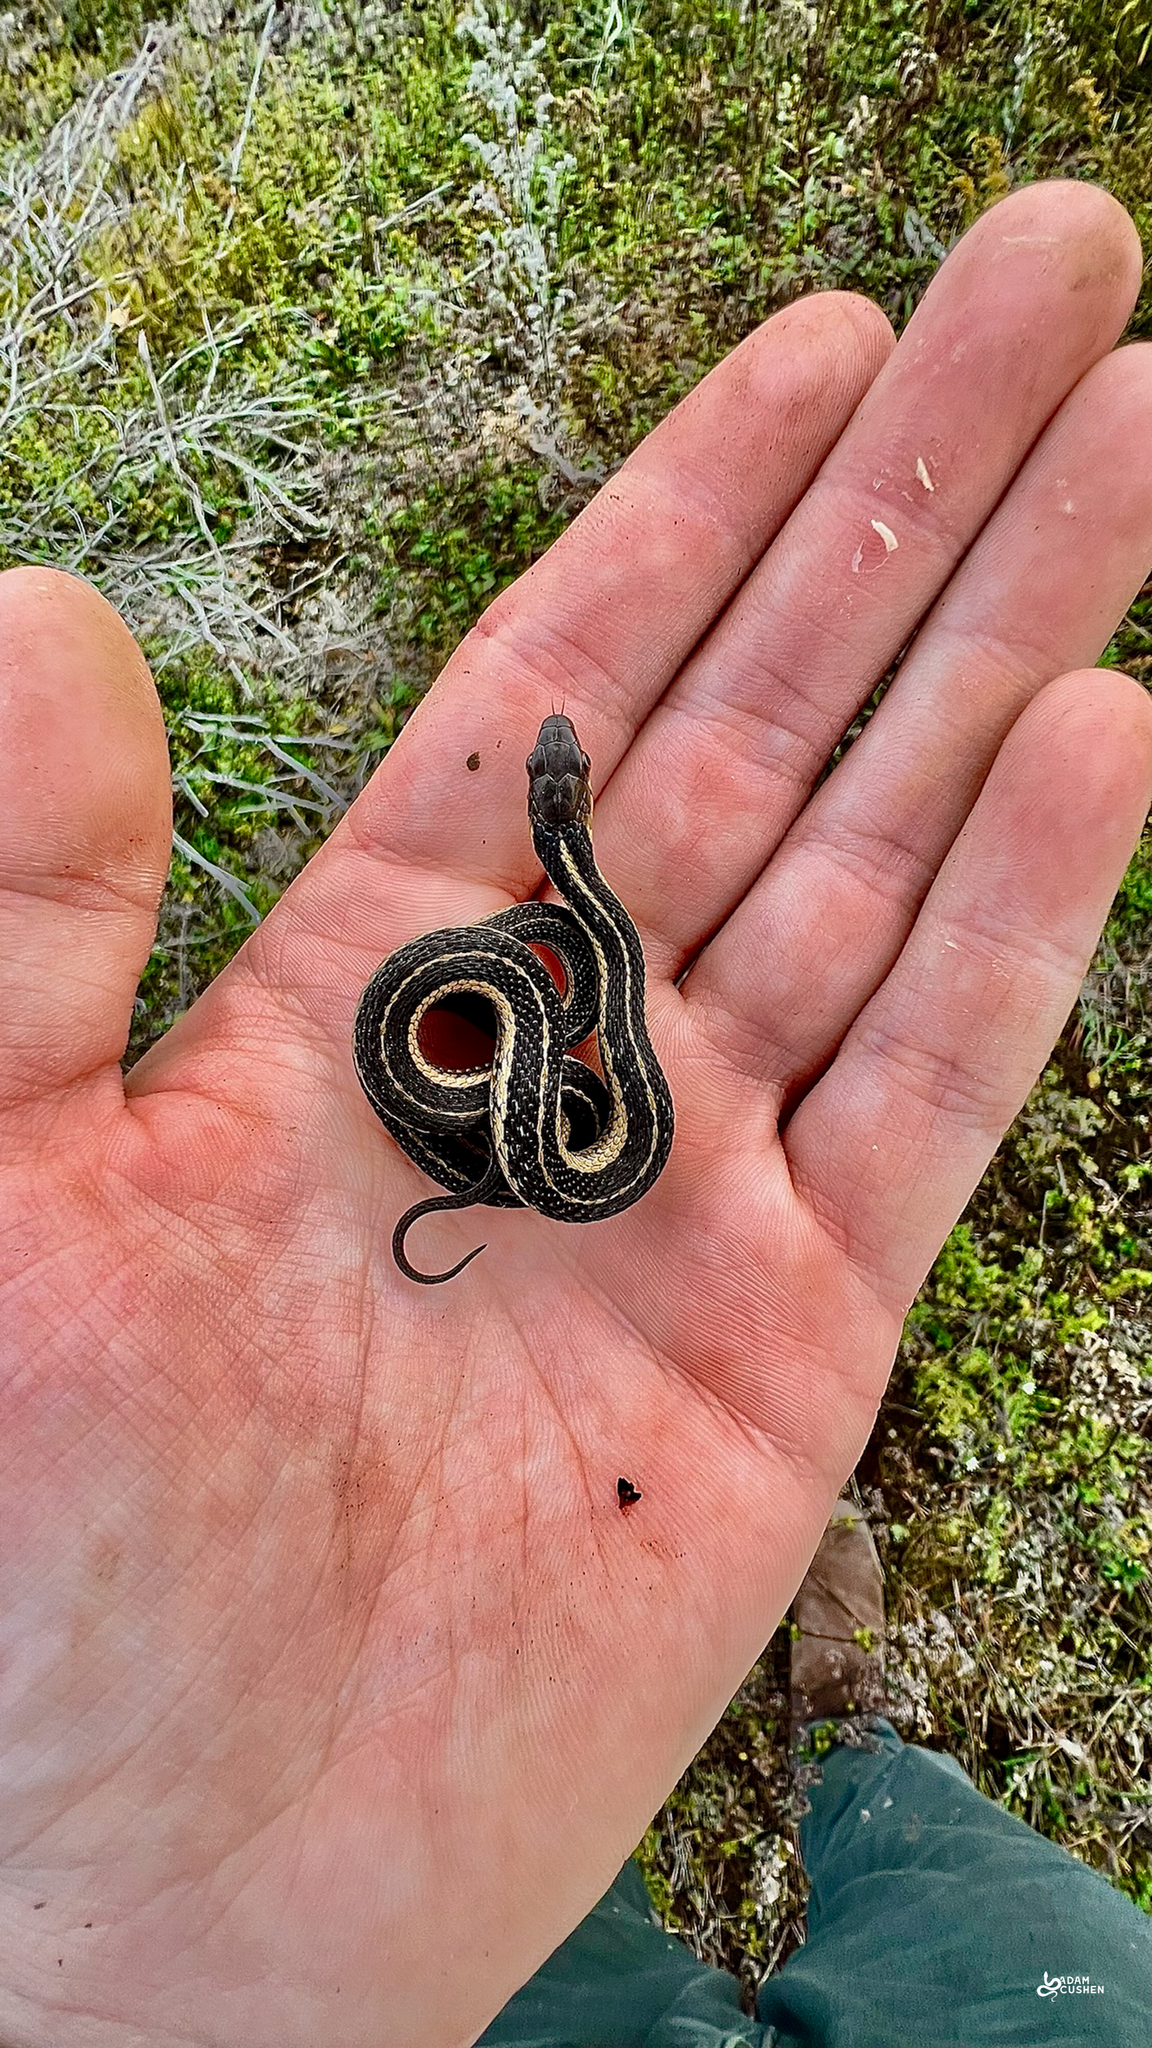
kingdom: Animalia
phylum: Chordata
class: Squamata
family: Colubridae
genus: Thamnophis
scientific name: Thamnophis sirtalis
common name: Common garter snake
